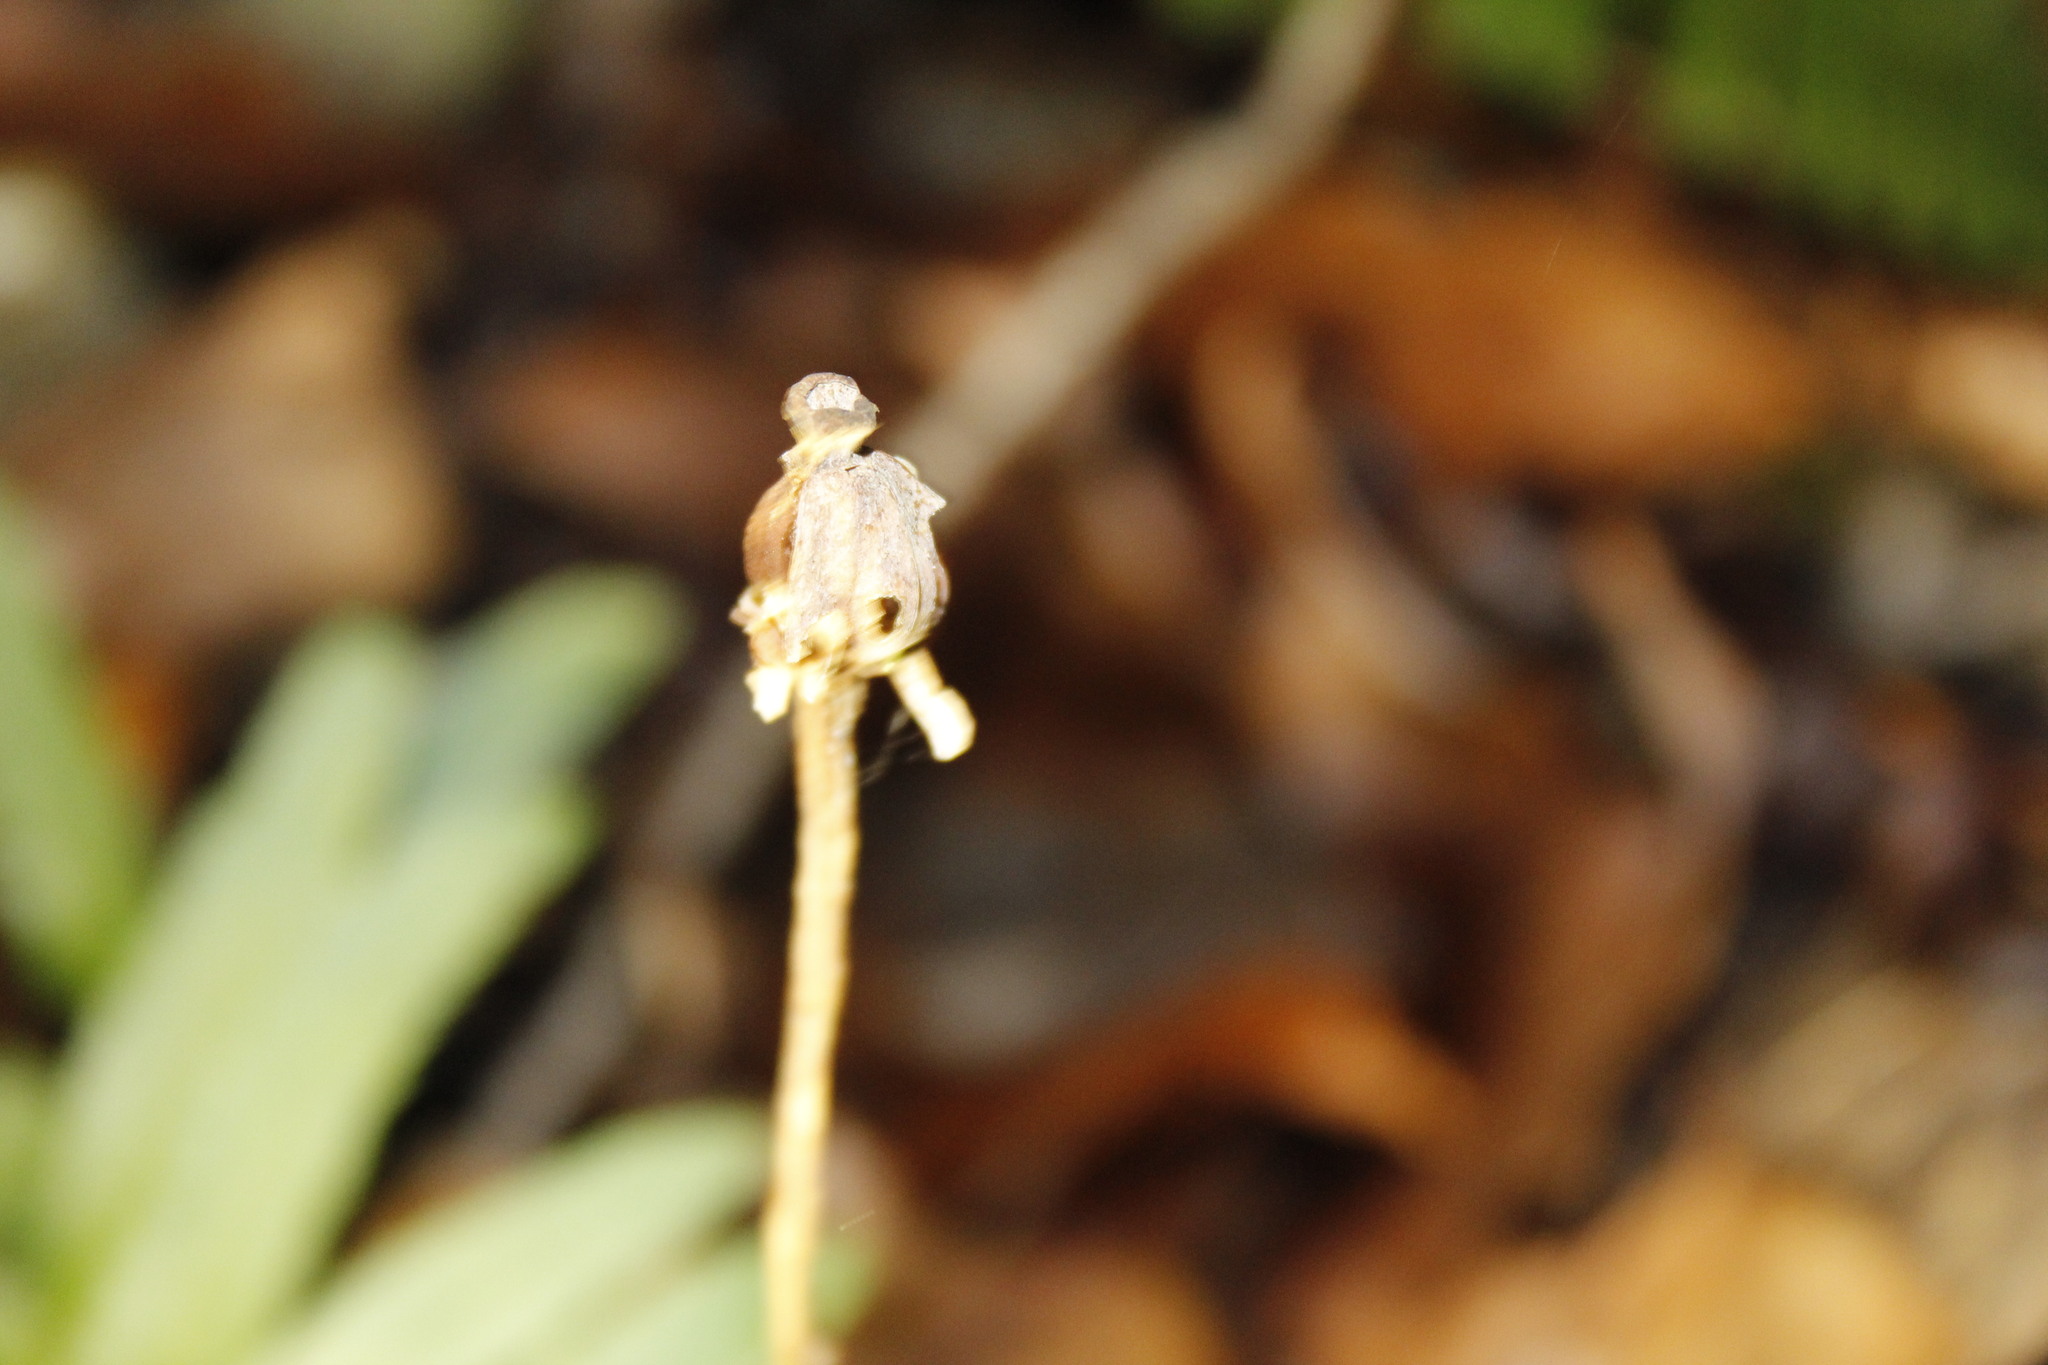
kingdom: Plantae
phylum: Tracheophyta
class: Magnoliopsida
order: Ericales
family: Ericaceae
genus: Monotropa
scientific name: Monotropa uniflora
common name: Convulsion root
